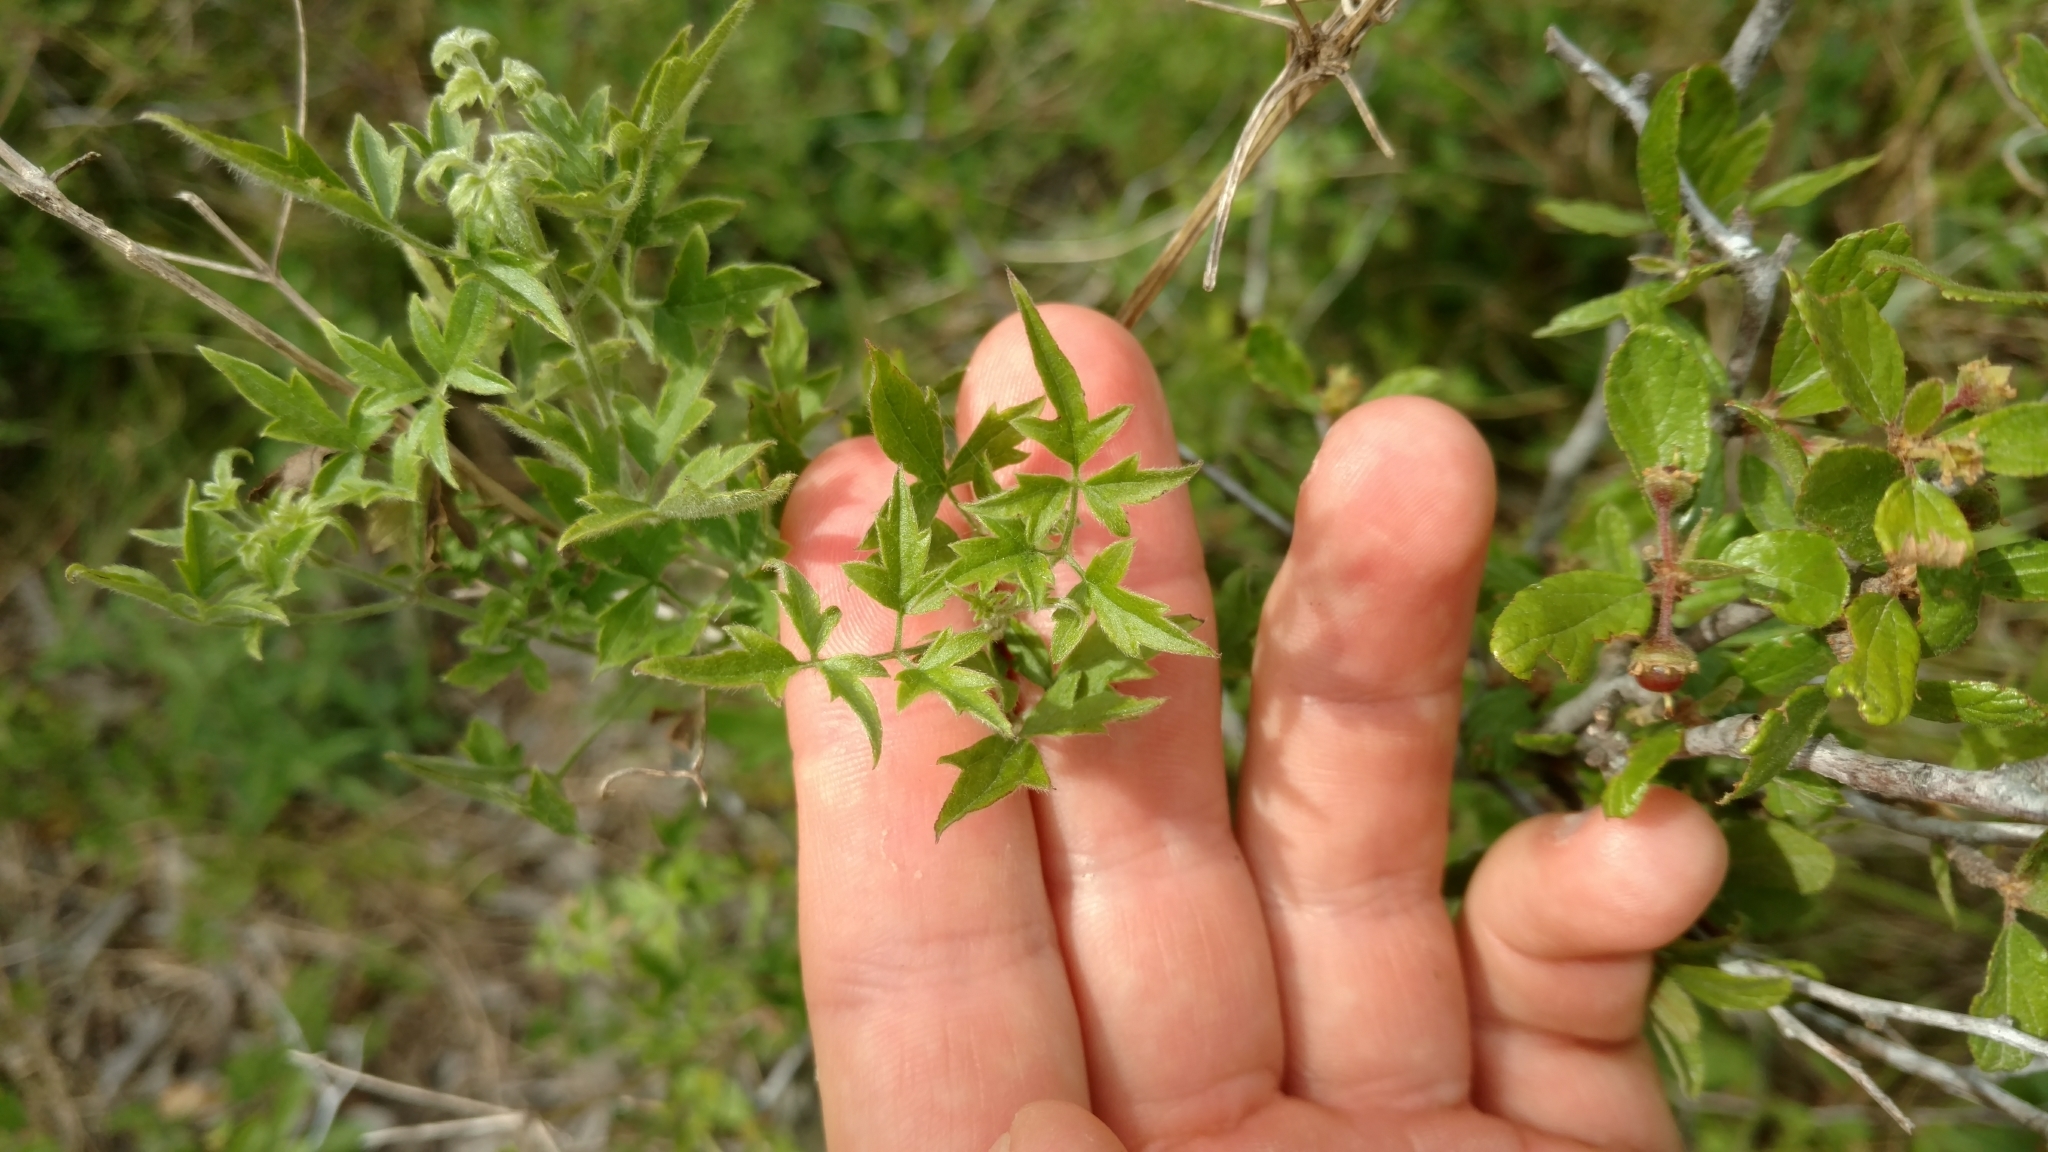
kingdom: Plantae
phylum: Tracheophyta
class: Magnoliopsida
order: Ranunculales
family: Ranunculaceae
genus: Clematis
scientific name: Clematis drummondii
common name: Texas virgin's bower
